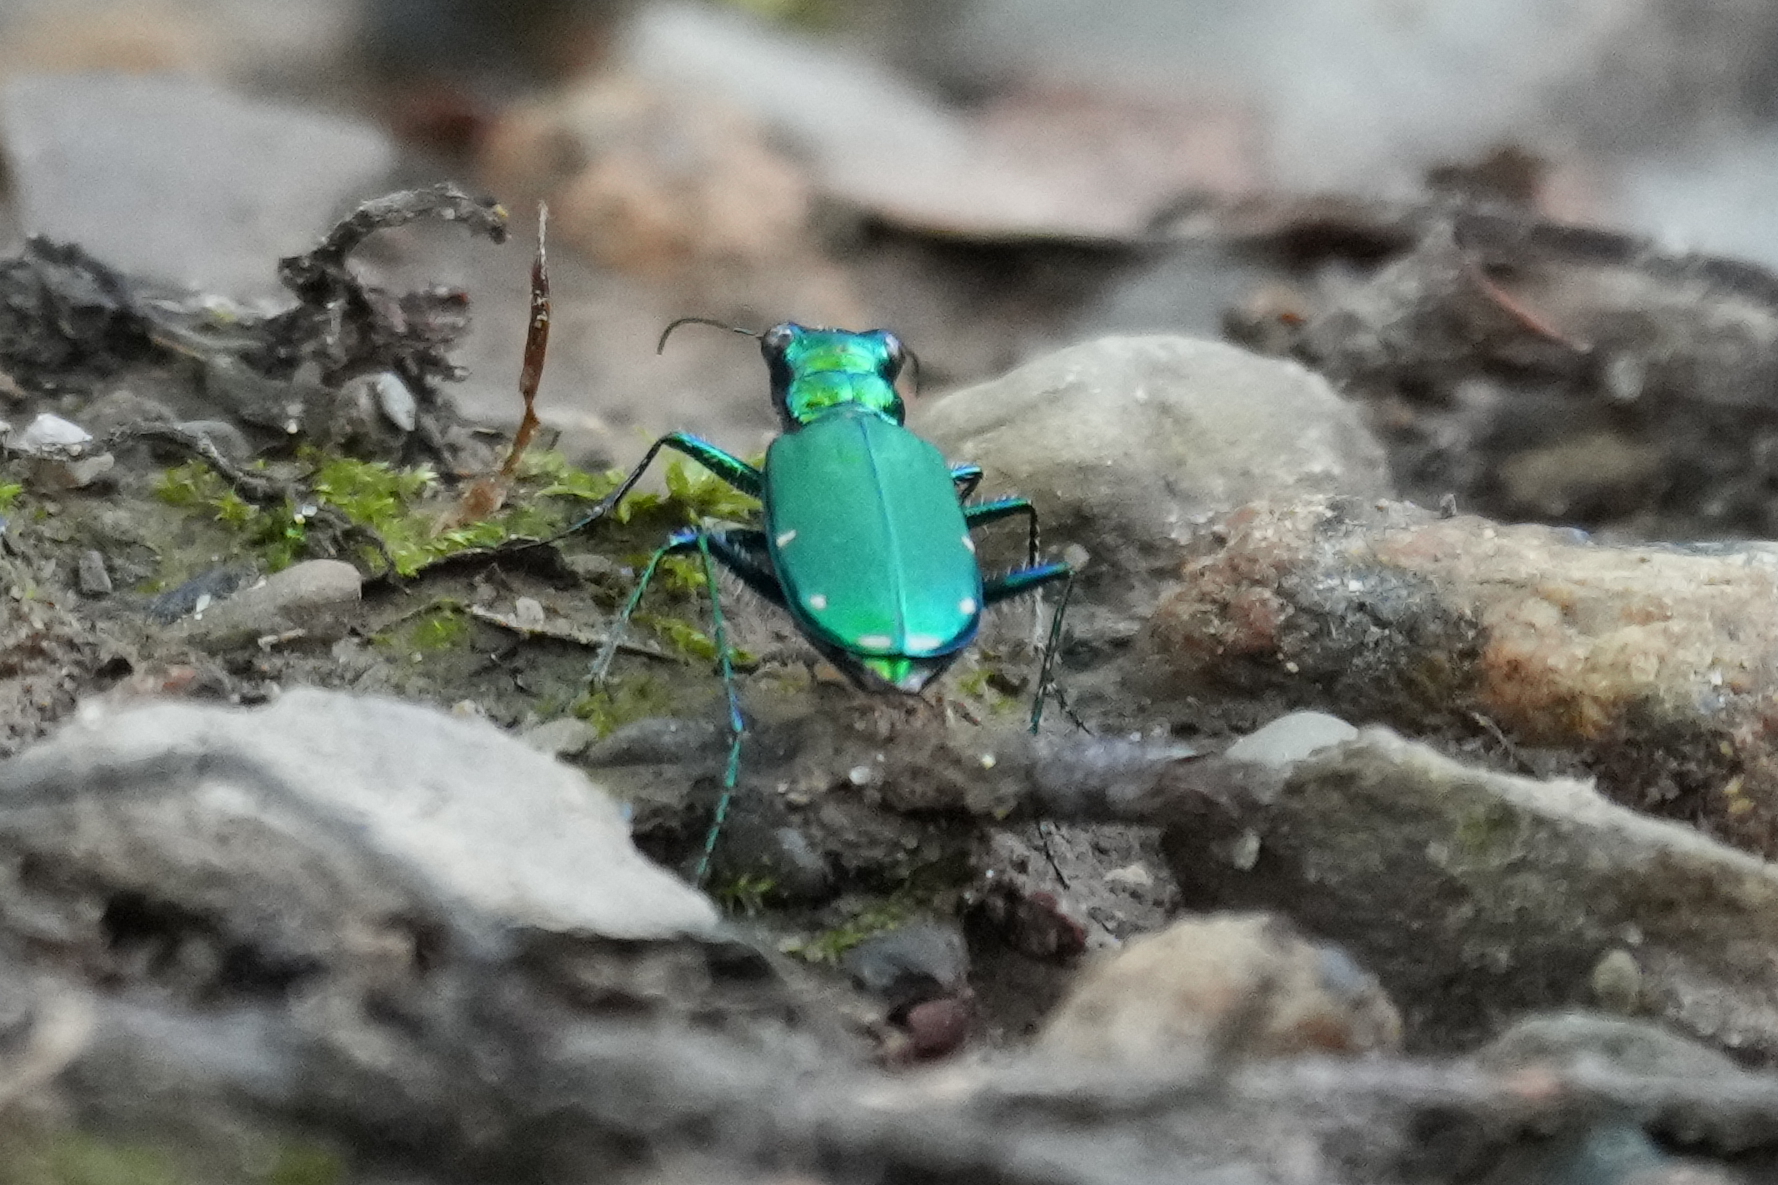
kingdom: Animalia
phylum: Arthropoda
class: Insecta
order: Coleoptera
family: Carabidae
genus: Cicindela
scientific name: Cicindela sexguttata
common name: Six-spotted tiger beetle
